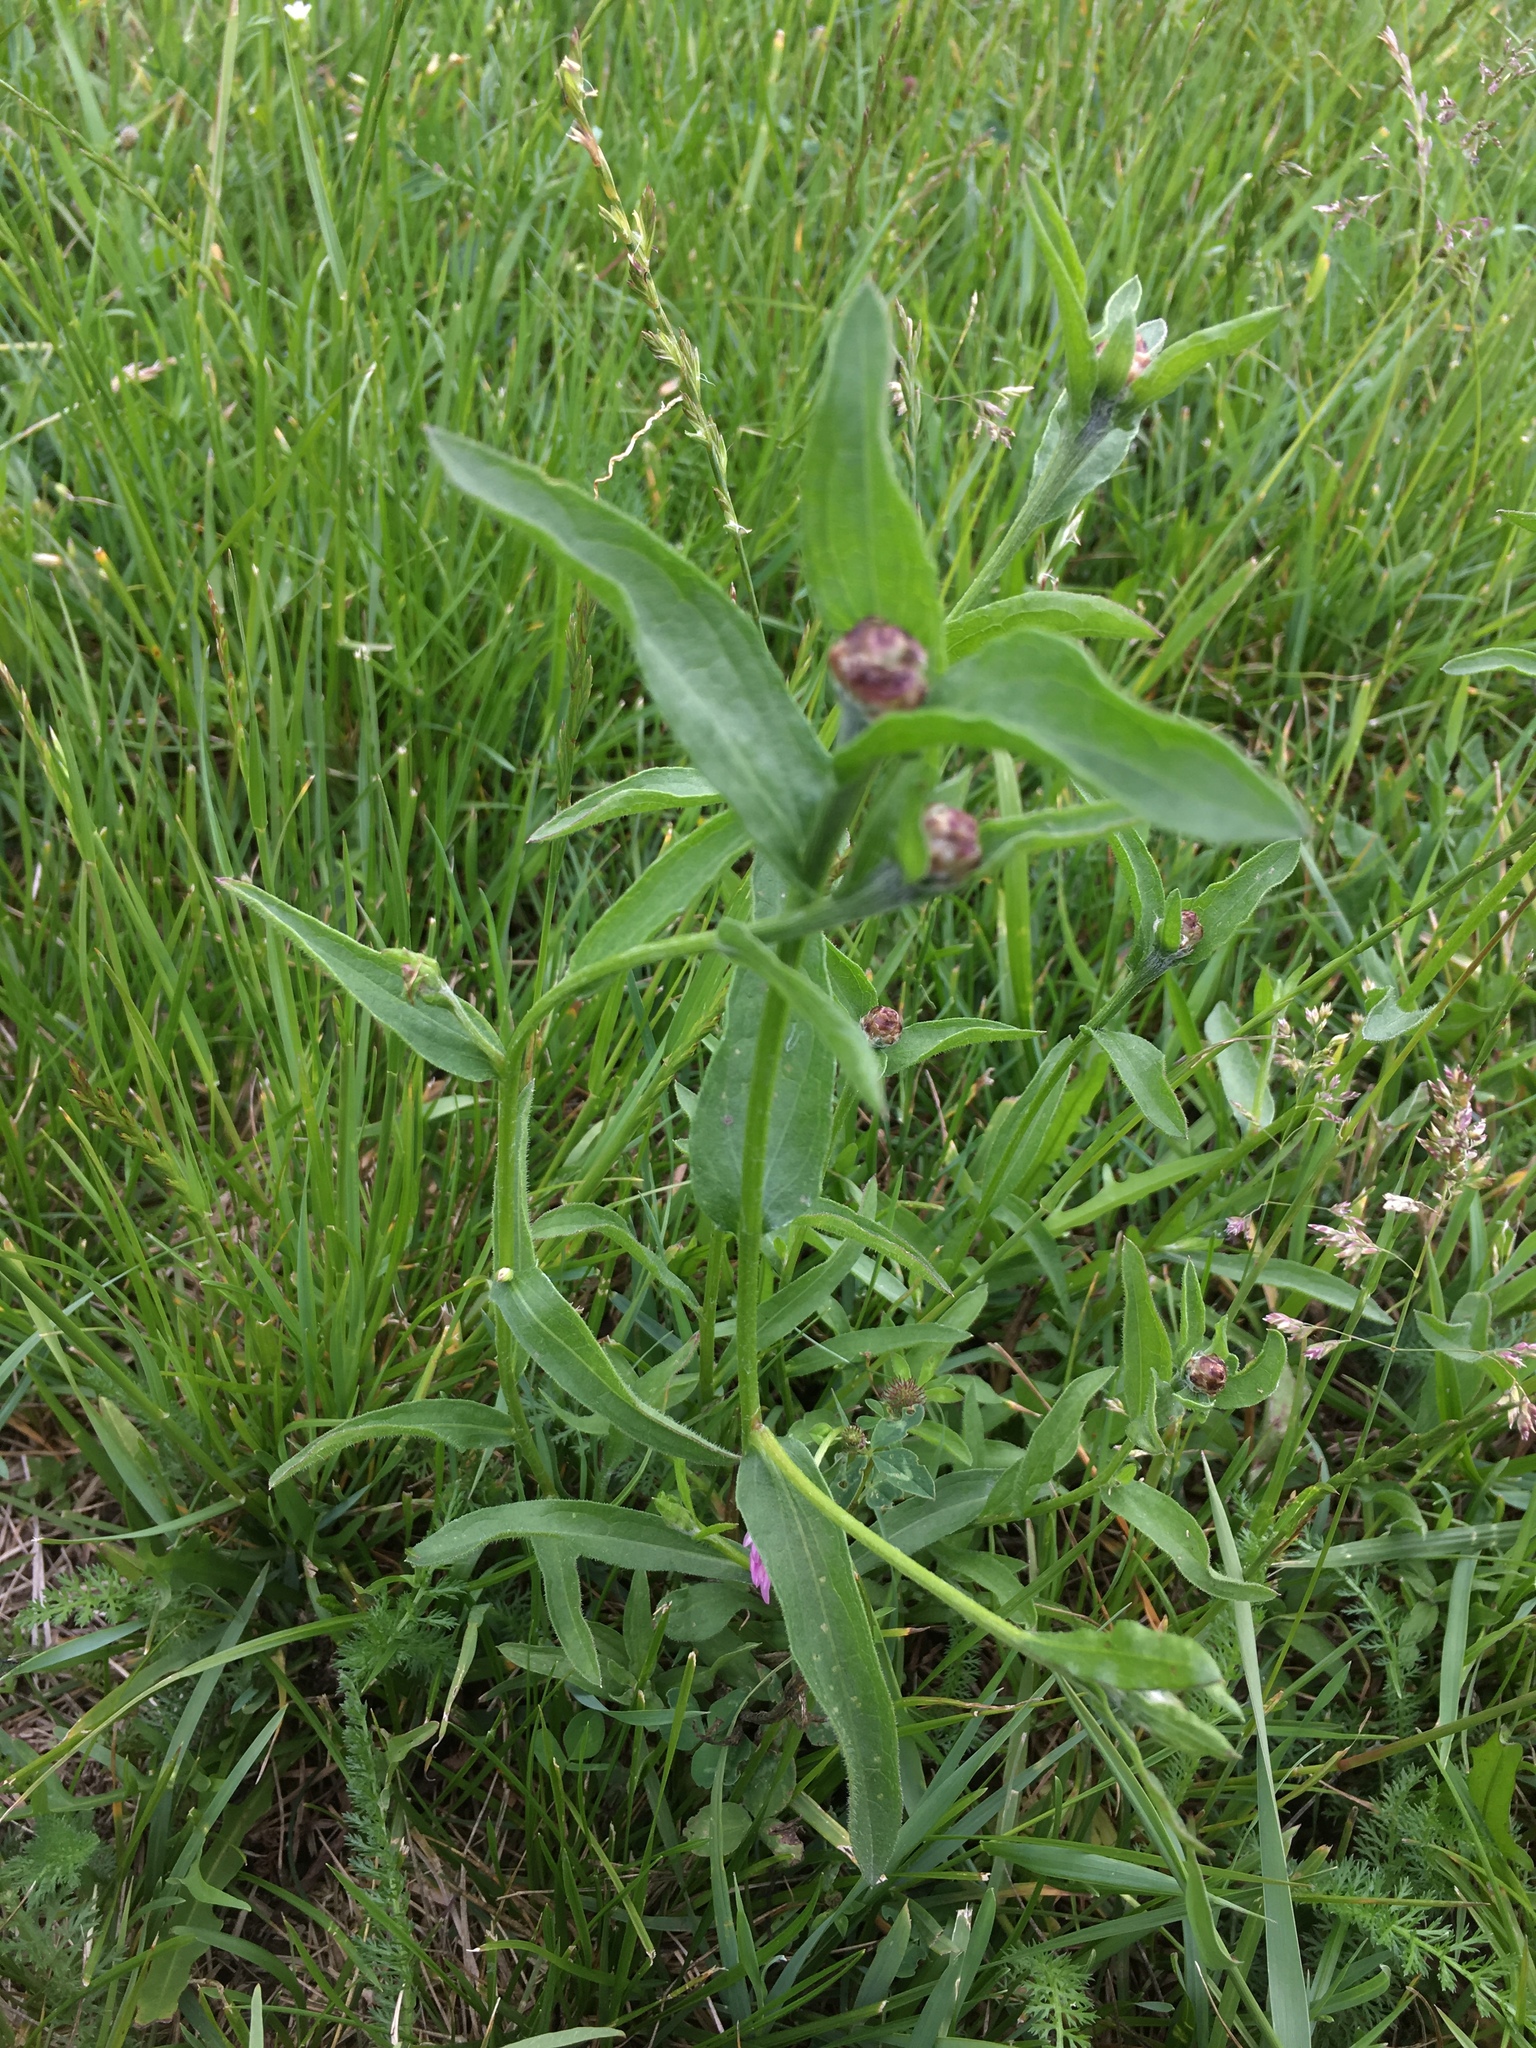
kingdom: Plantae
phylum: Tracheophyta
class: Magnoliopsida
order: Asterales
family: Asteraceae
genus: Centaurea
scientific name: Centaurea jacea
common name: Brown knapweed
